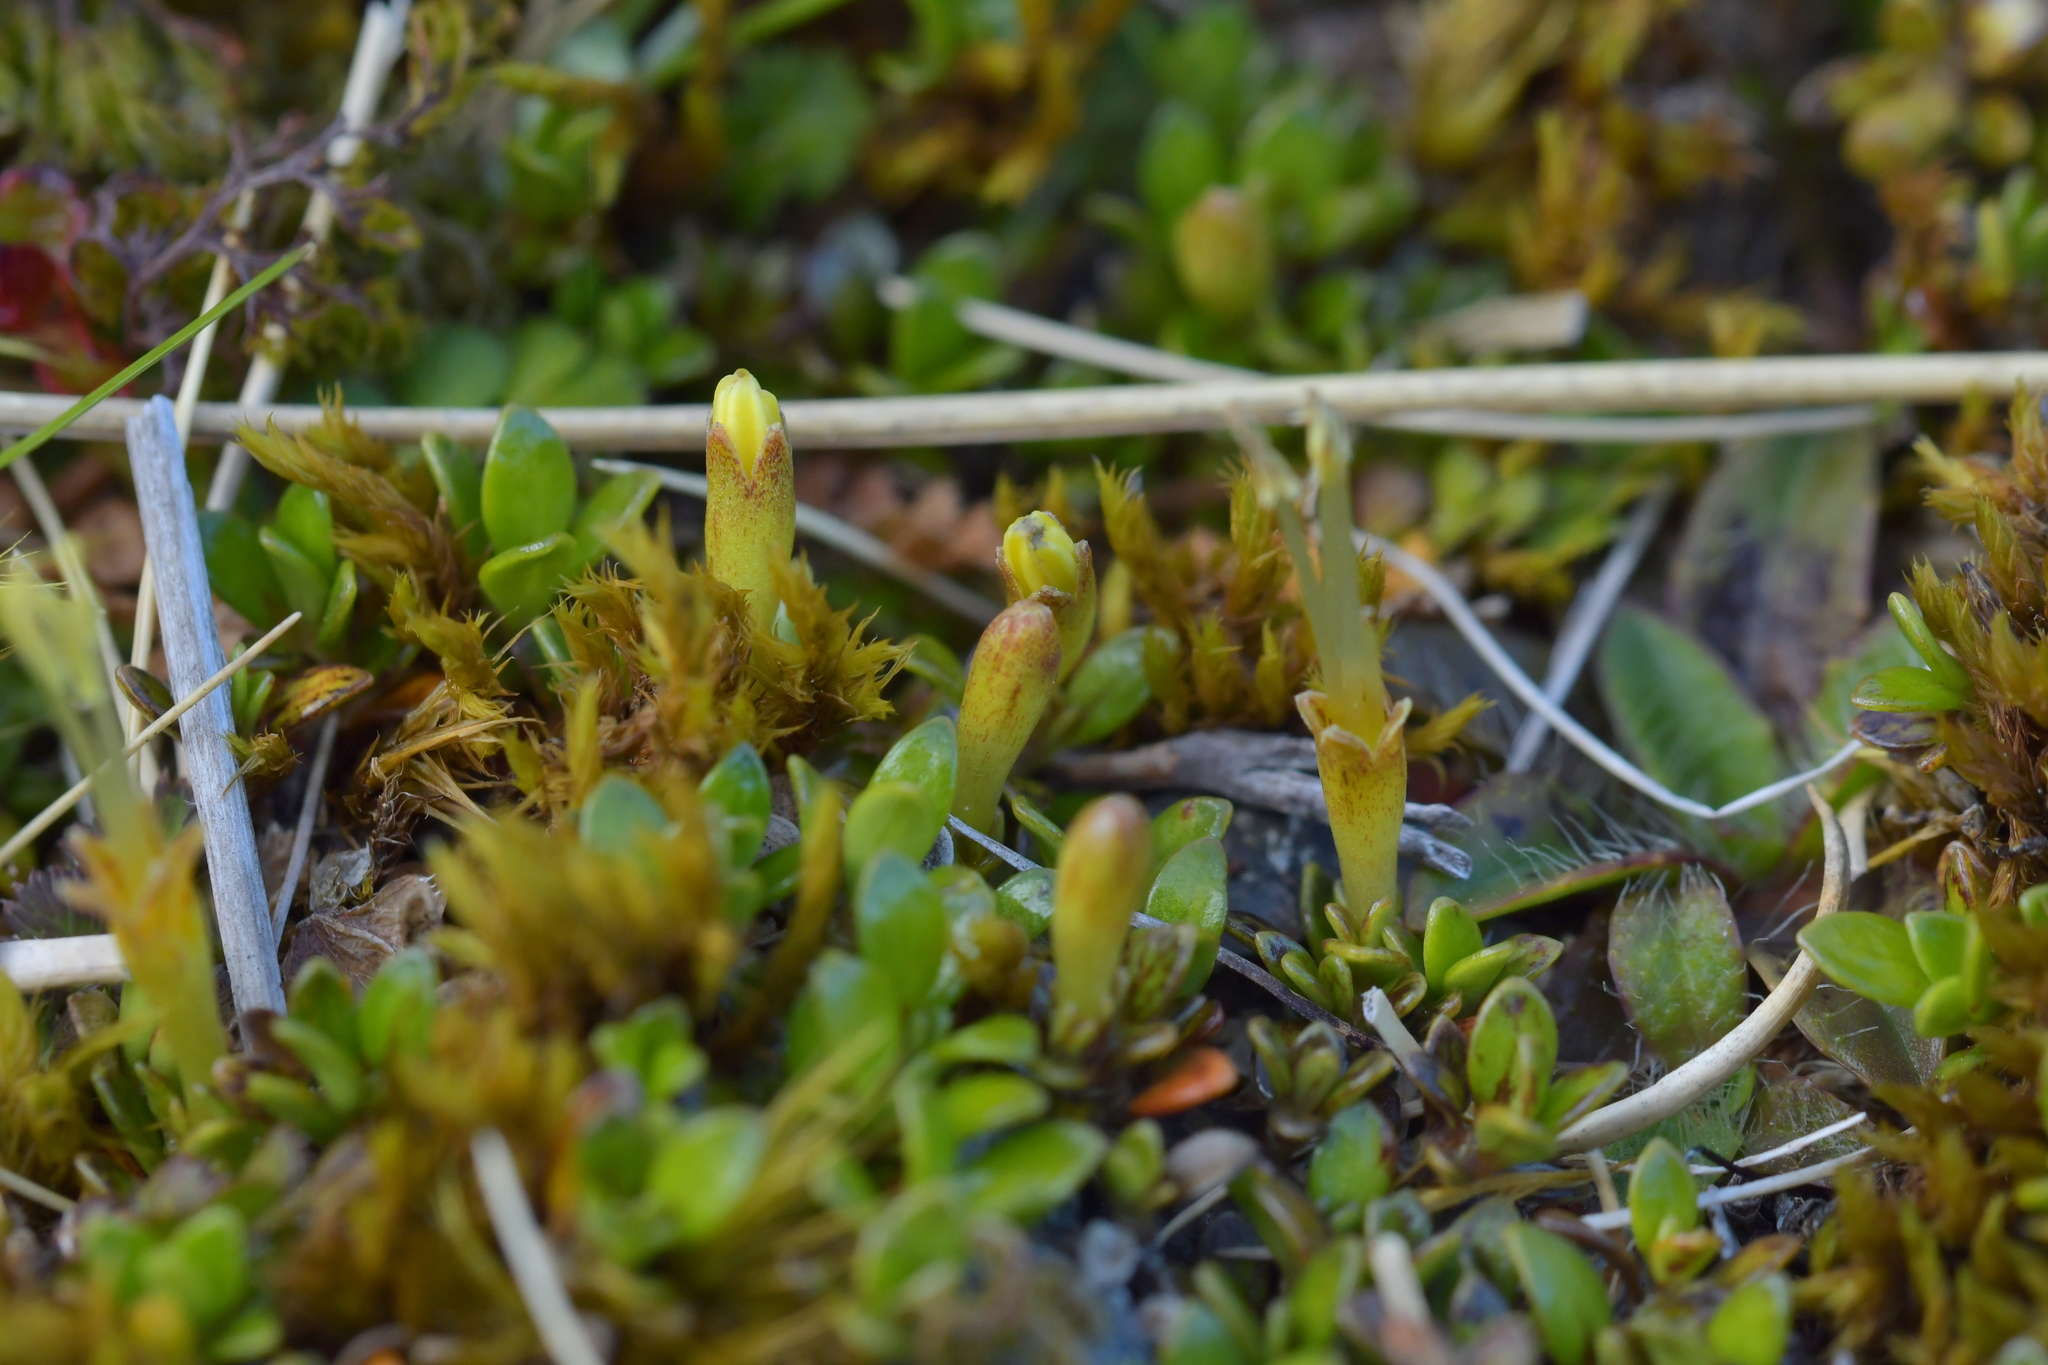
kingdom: Plantae
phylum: Tracheophyta
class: Magnoliopsida
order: Gentianales
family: Rubiaceae
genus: Coprosma
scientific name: Coprosma perpusilla
